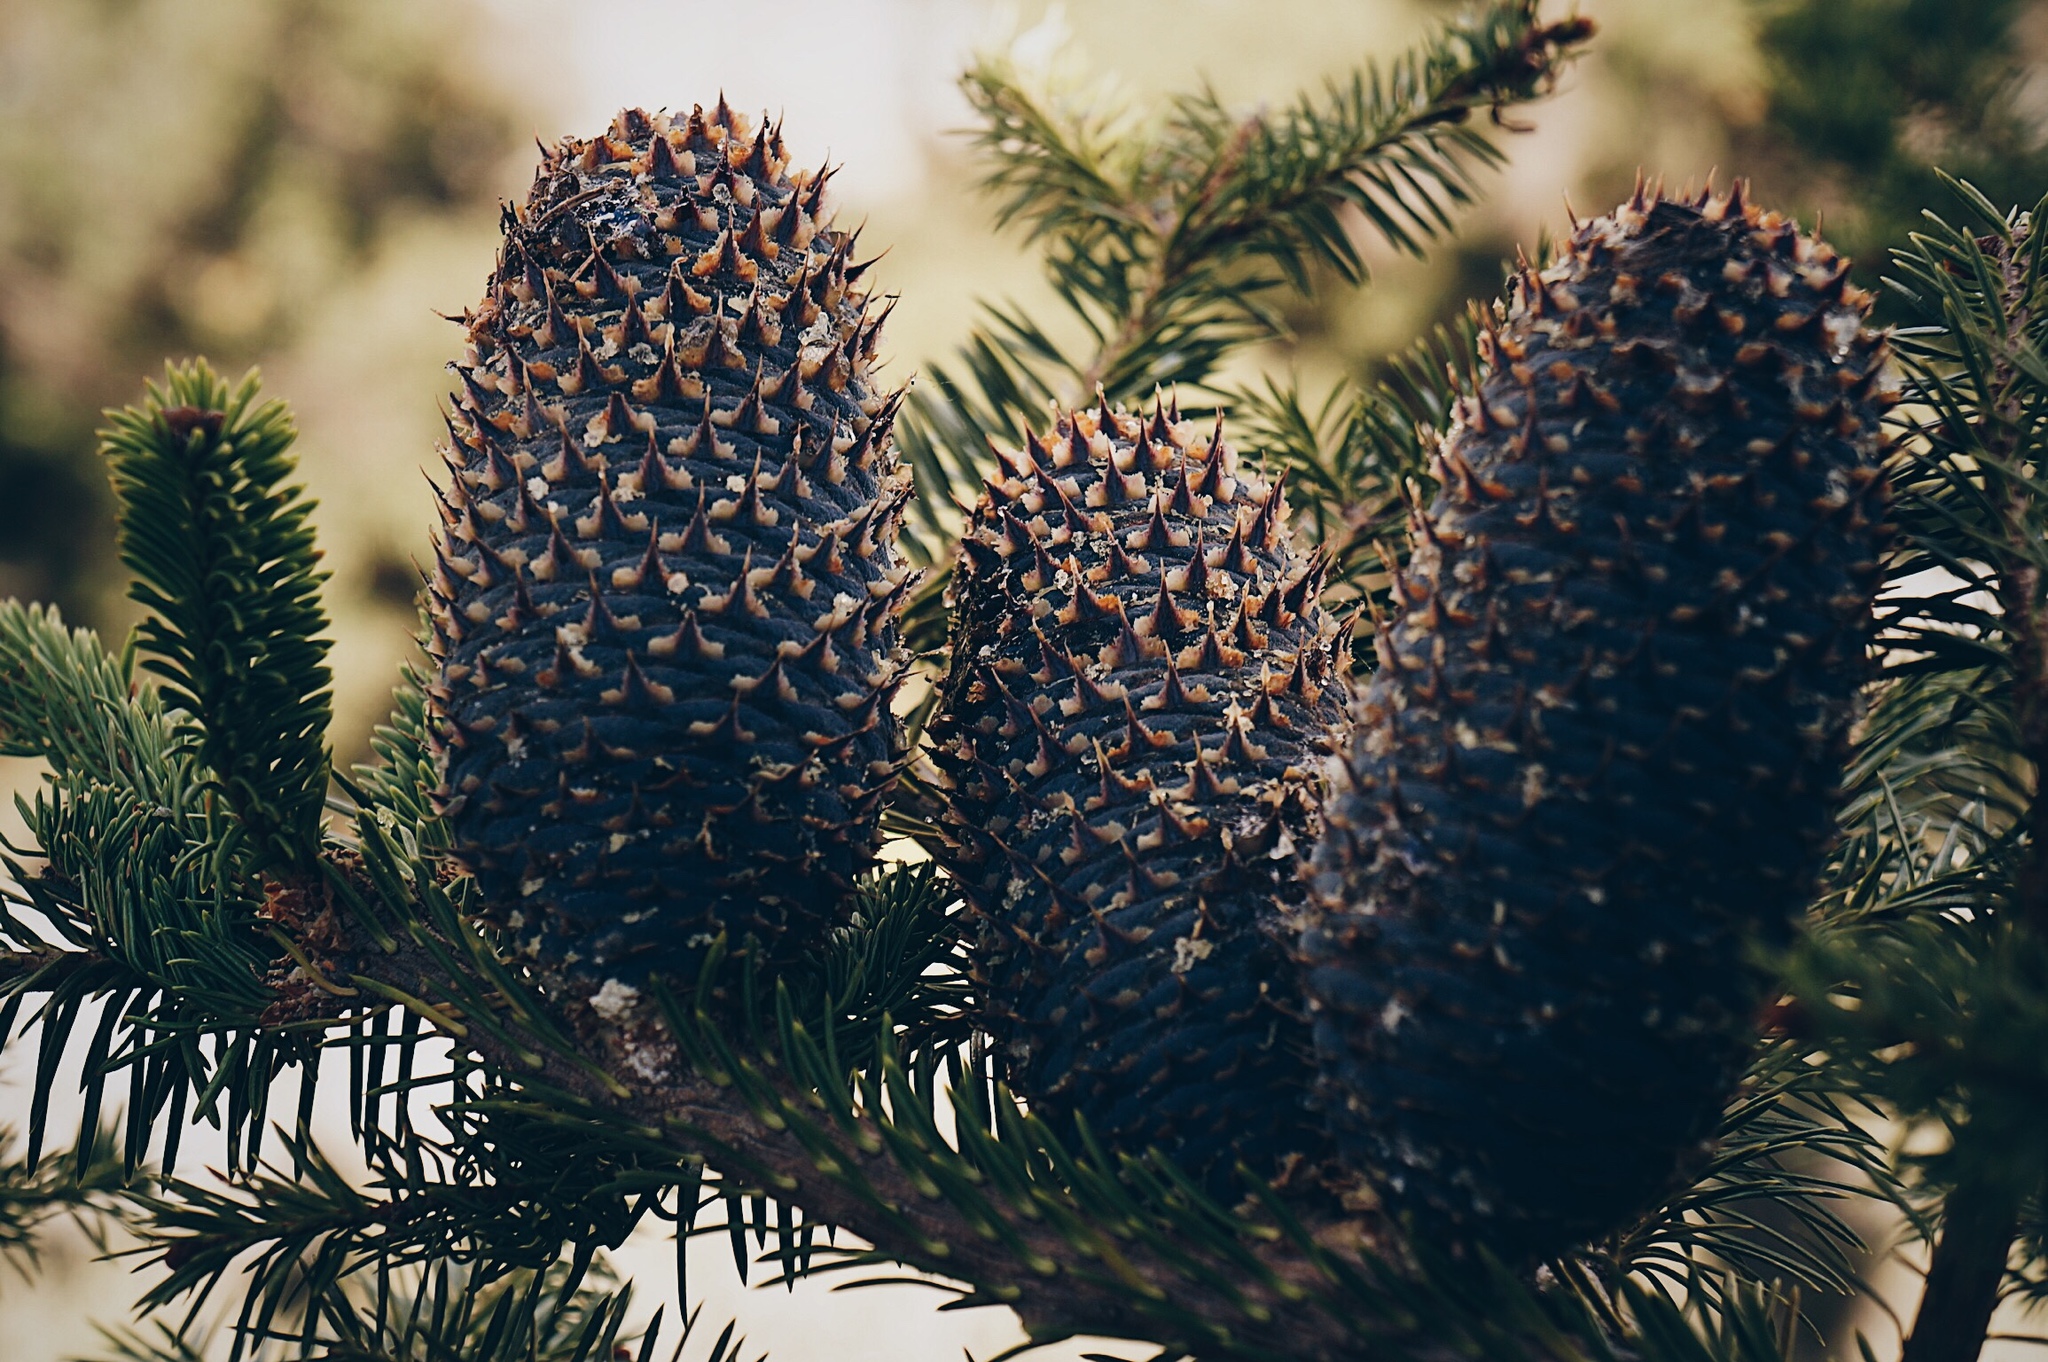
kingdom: Plantae
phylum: Tracheophyta
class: Pinopsida
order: Pinales
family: Pinaceae
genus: Abies
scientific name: Abies vejarii
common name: Vejar's fir
